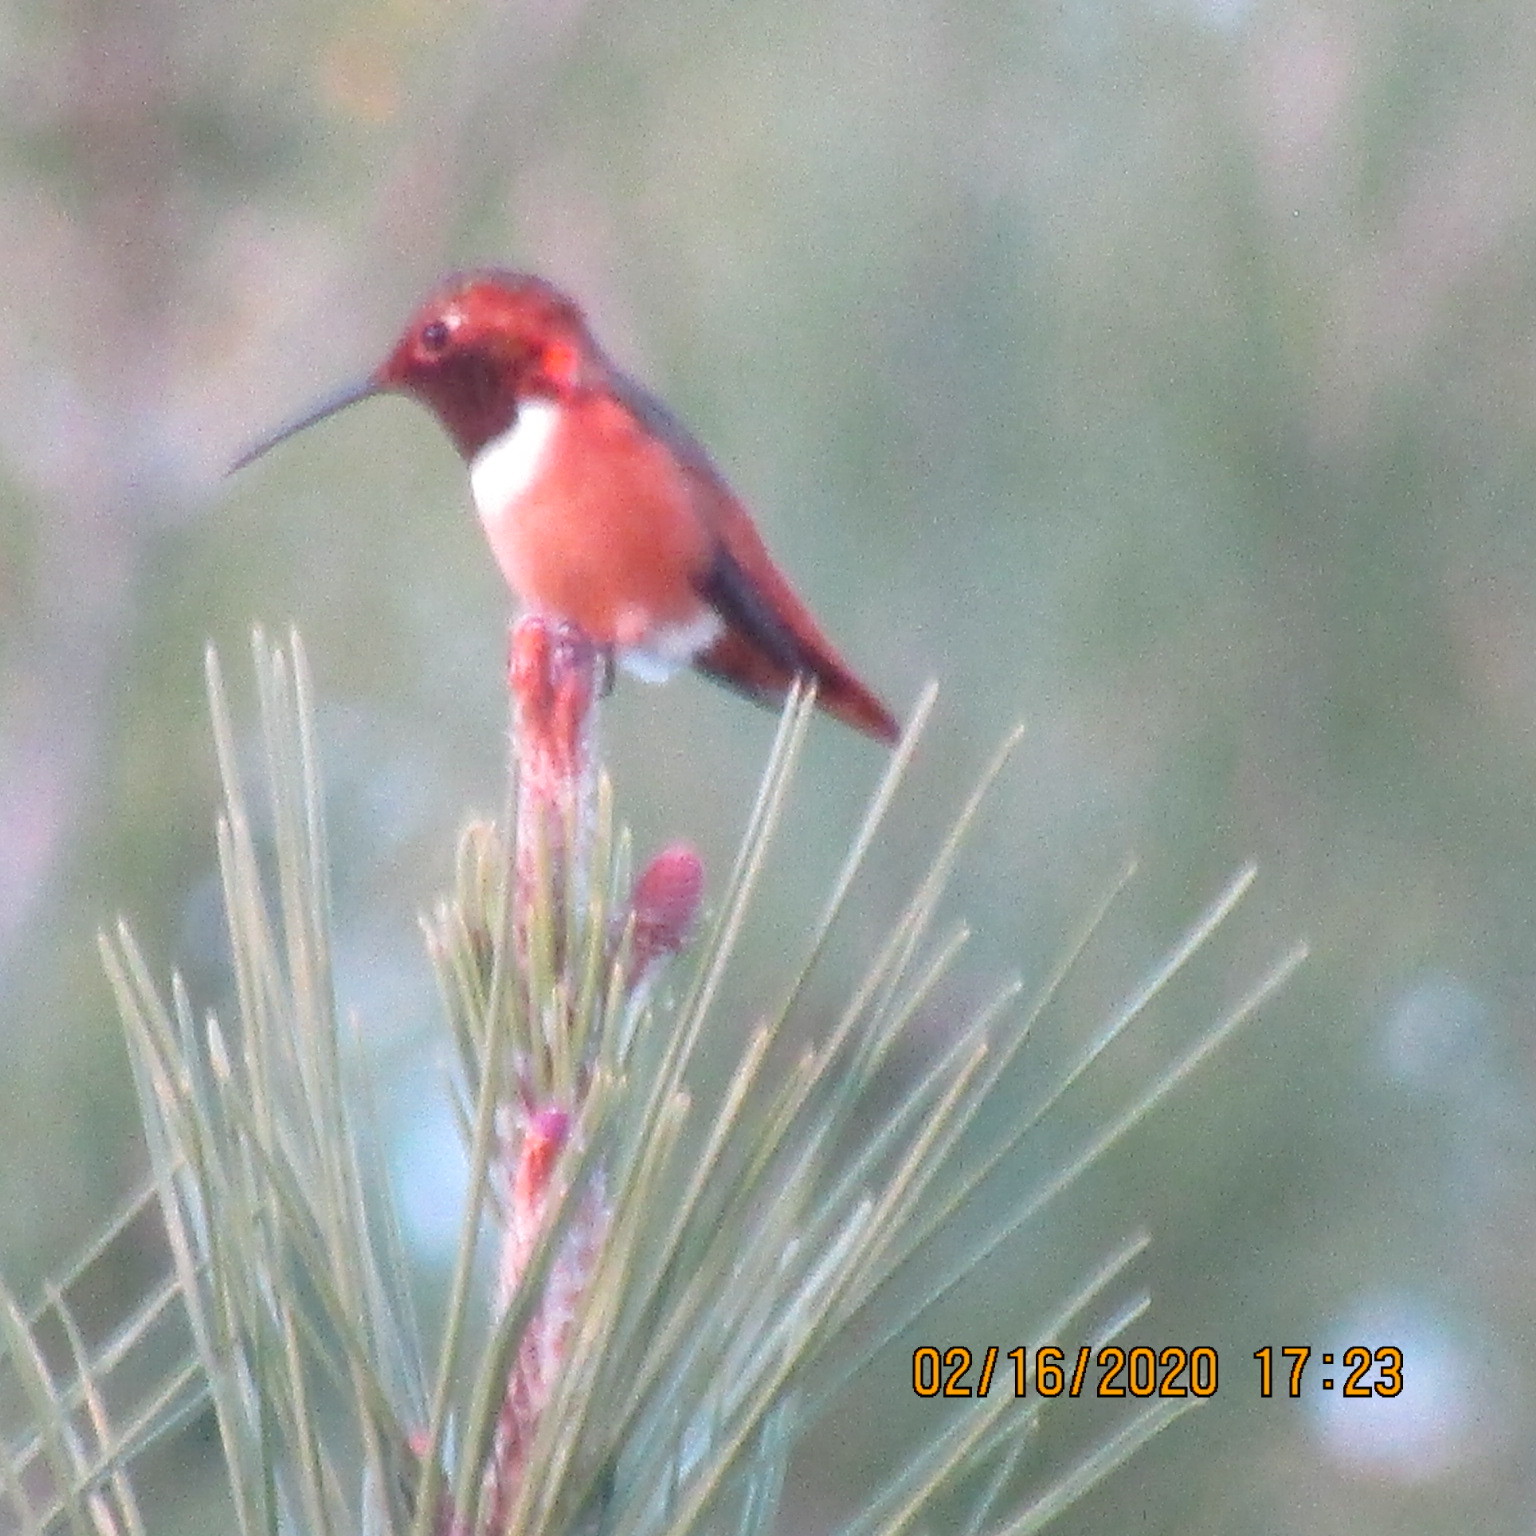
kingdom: Animalia
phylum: Chordata
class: Aves
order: Apodiformes
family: Trochilidae
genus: Selasphorus
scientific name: Selasphorus sasin
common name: Allen's hummingbird
